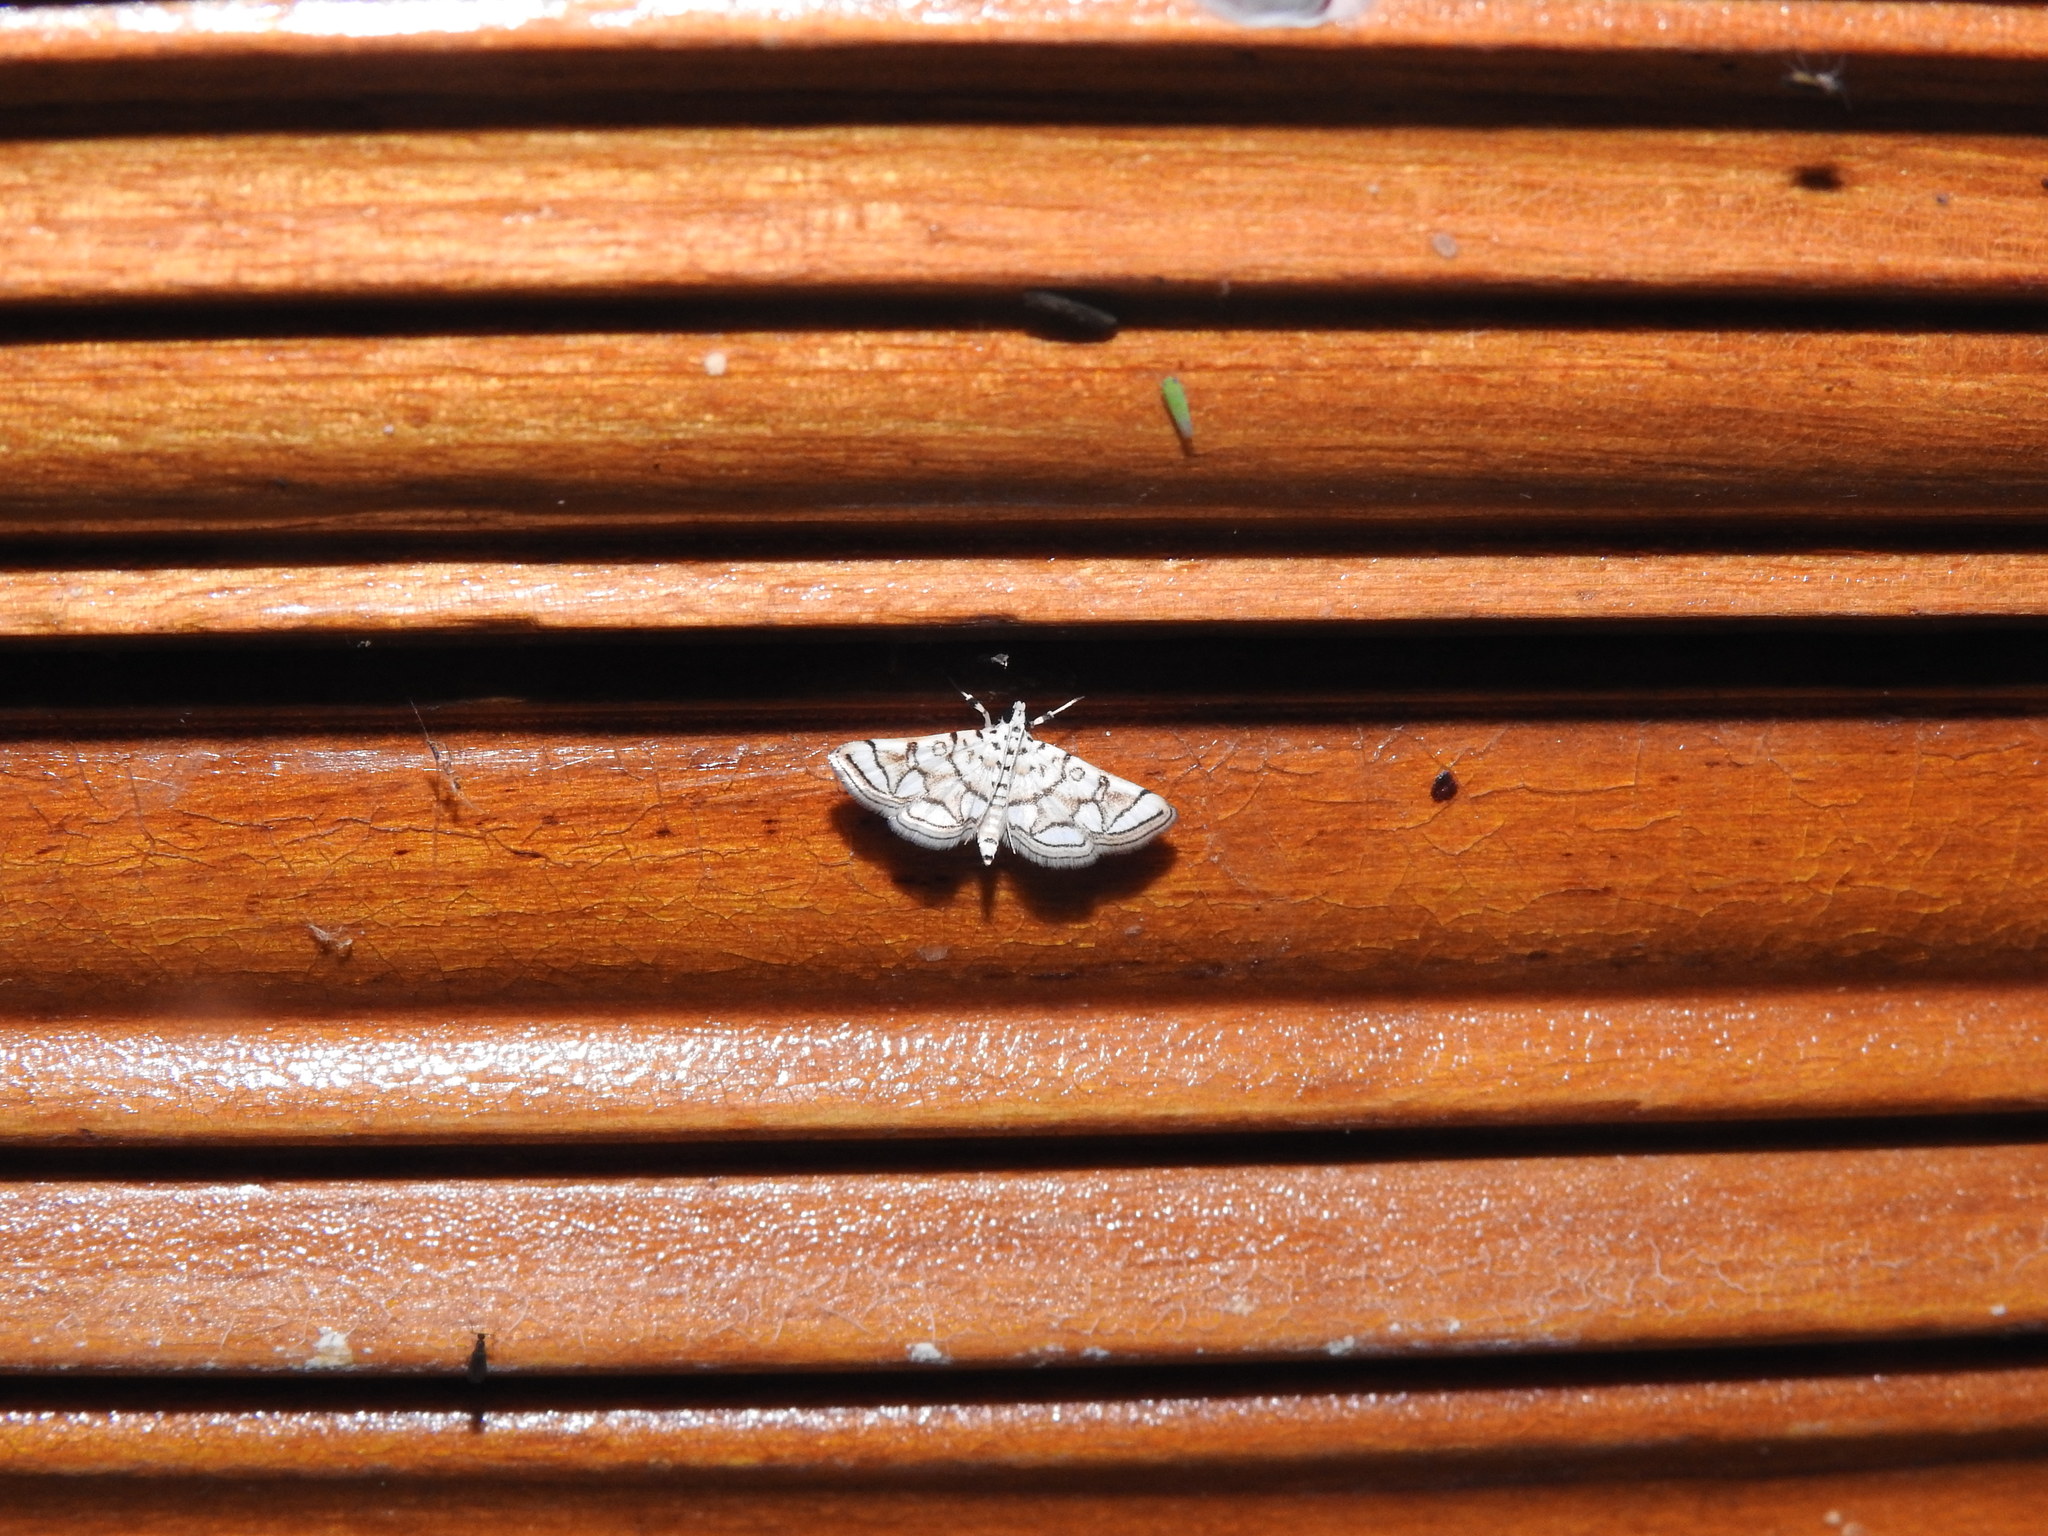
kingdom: Animalia
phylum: Arthropoda
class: Insecta
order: Lepidoptera
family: Crambidae
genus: Elophila
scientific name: Elophila
